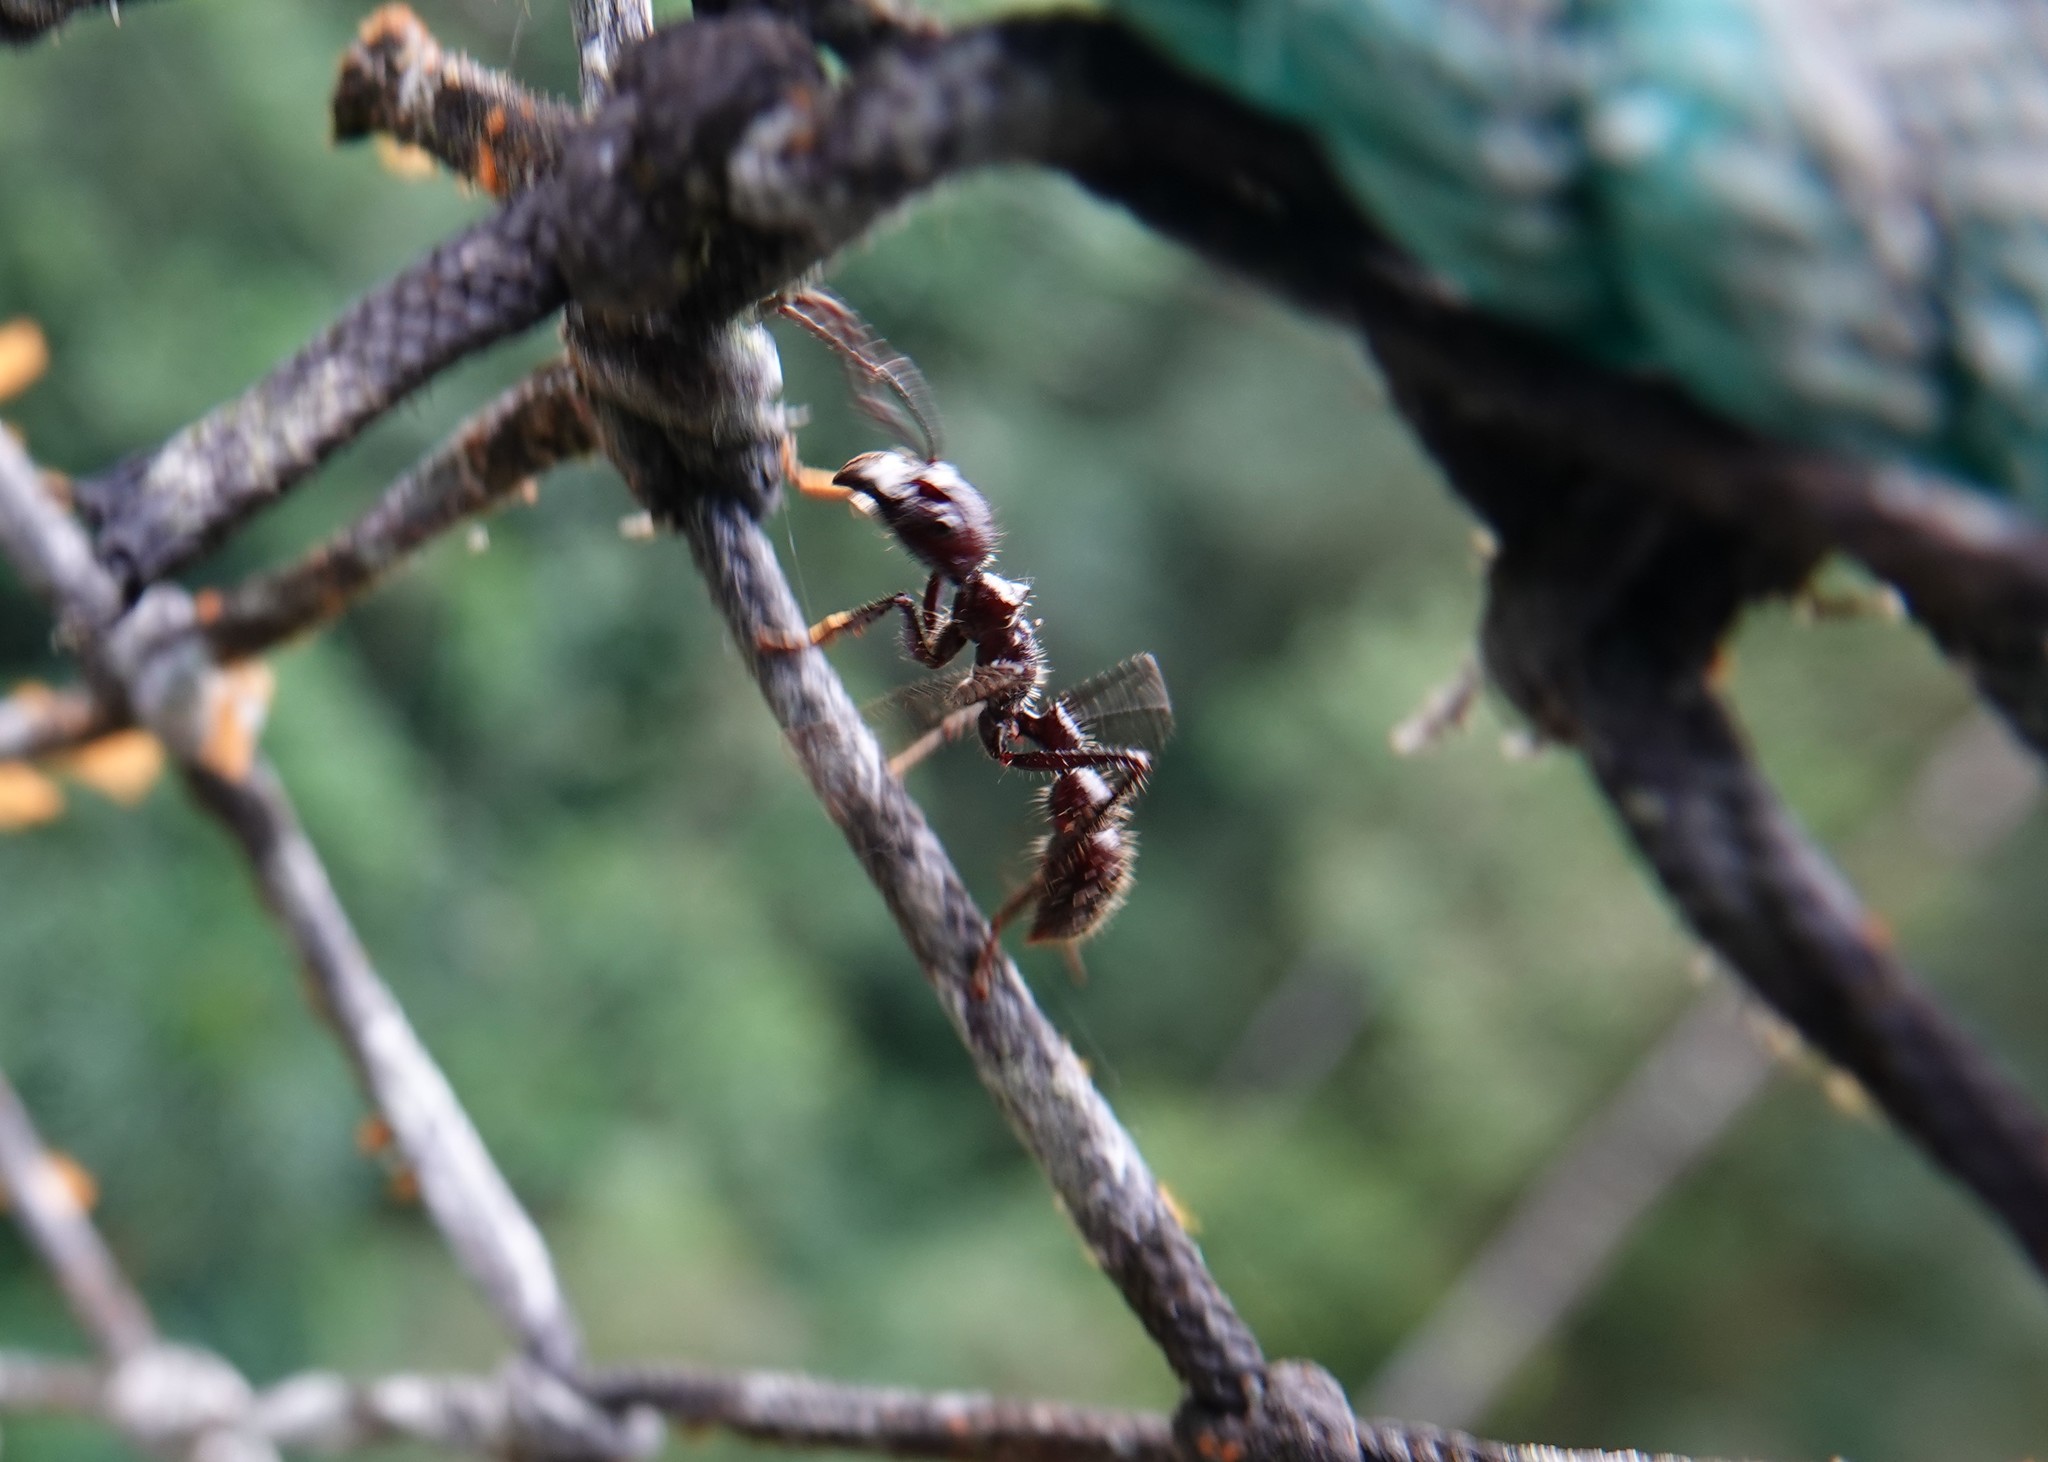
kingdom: Animalia
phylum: Arthropoda
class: Insecta
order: Hymenoptera
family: Formicidae
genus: Paraponera
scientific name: Paraponera clavata
